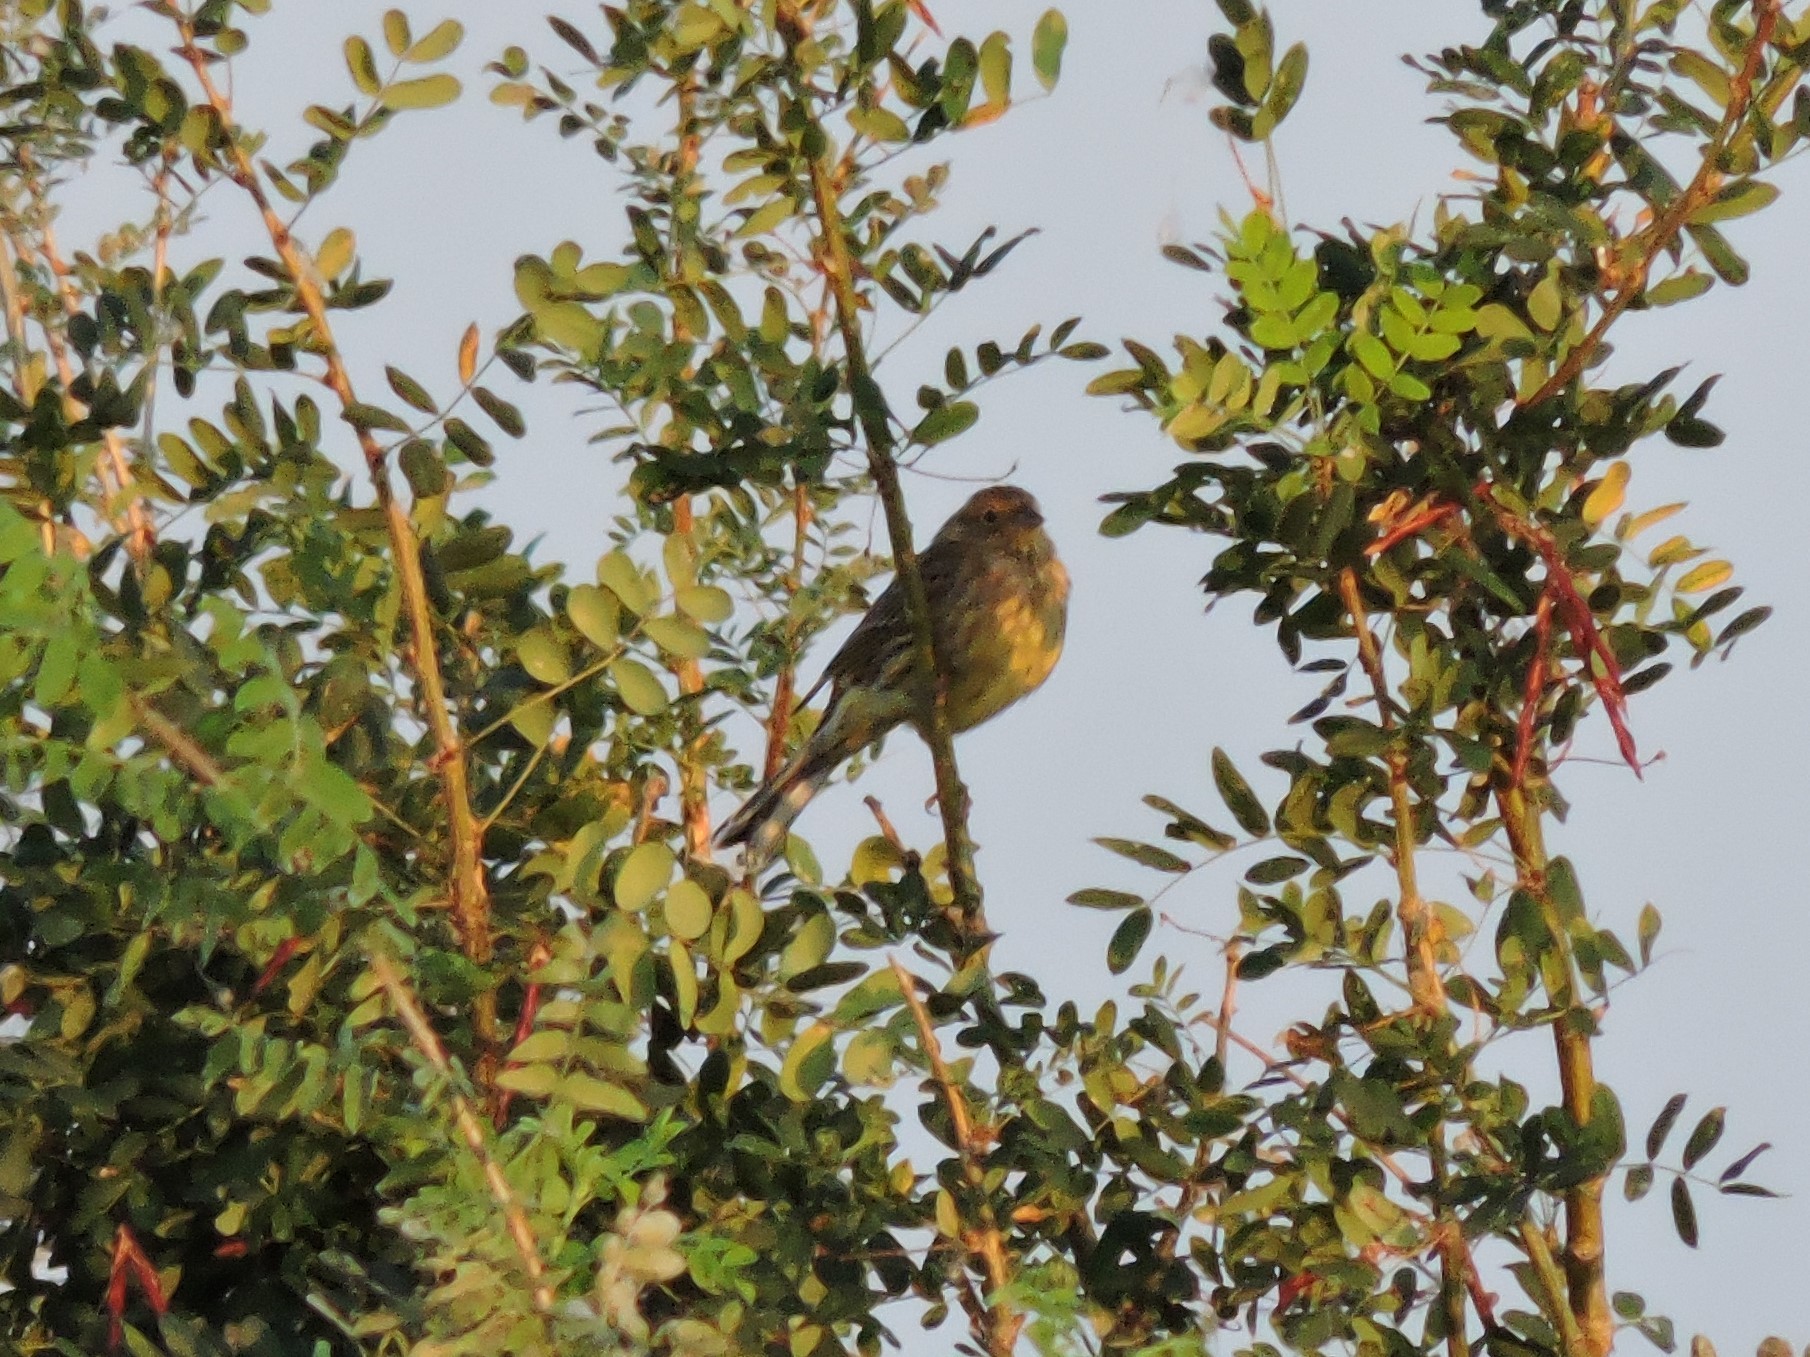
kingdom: Animalia
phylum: Chordata
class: Aves
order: Passeriformes
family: Emberizidae
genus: Emberiza
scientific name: Emberiza citrinella
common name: Yellowhammer
